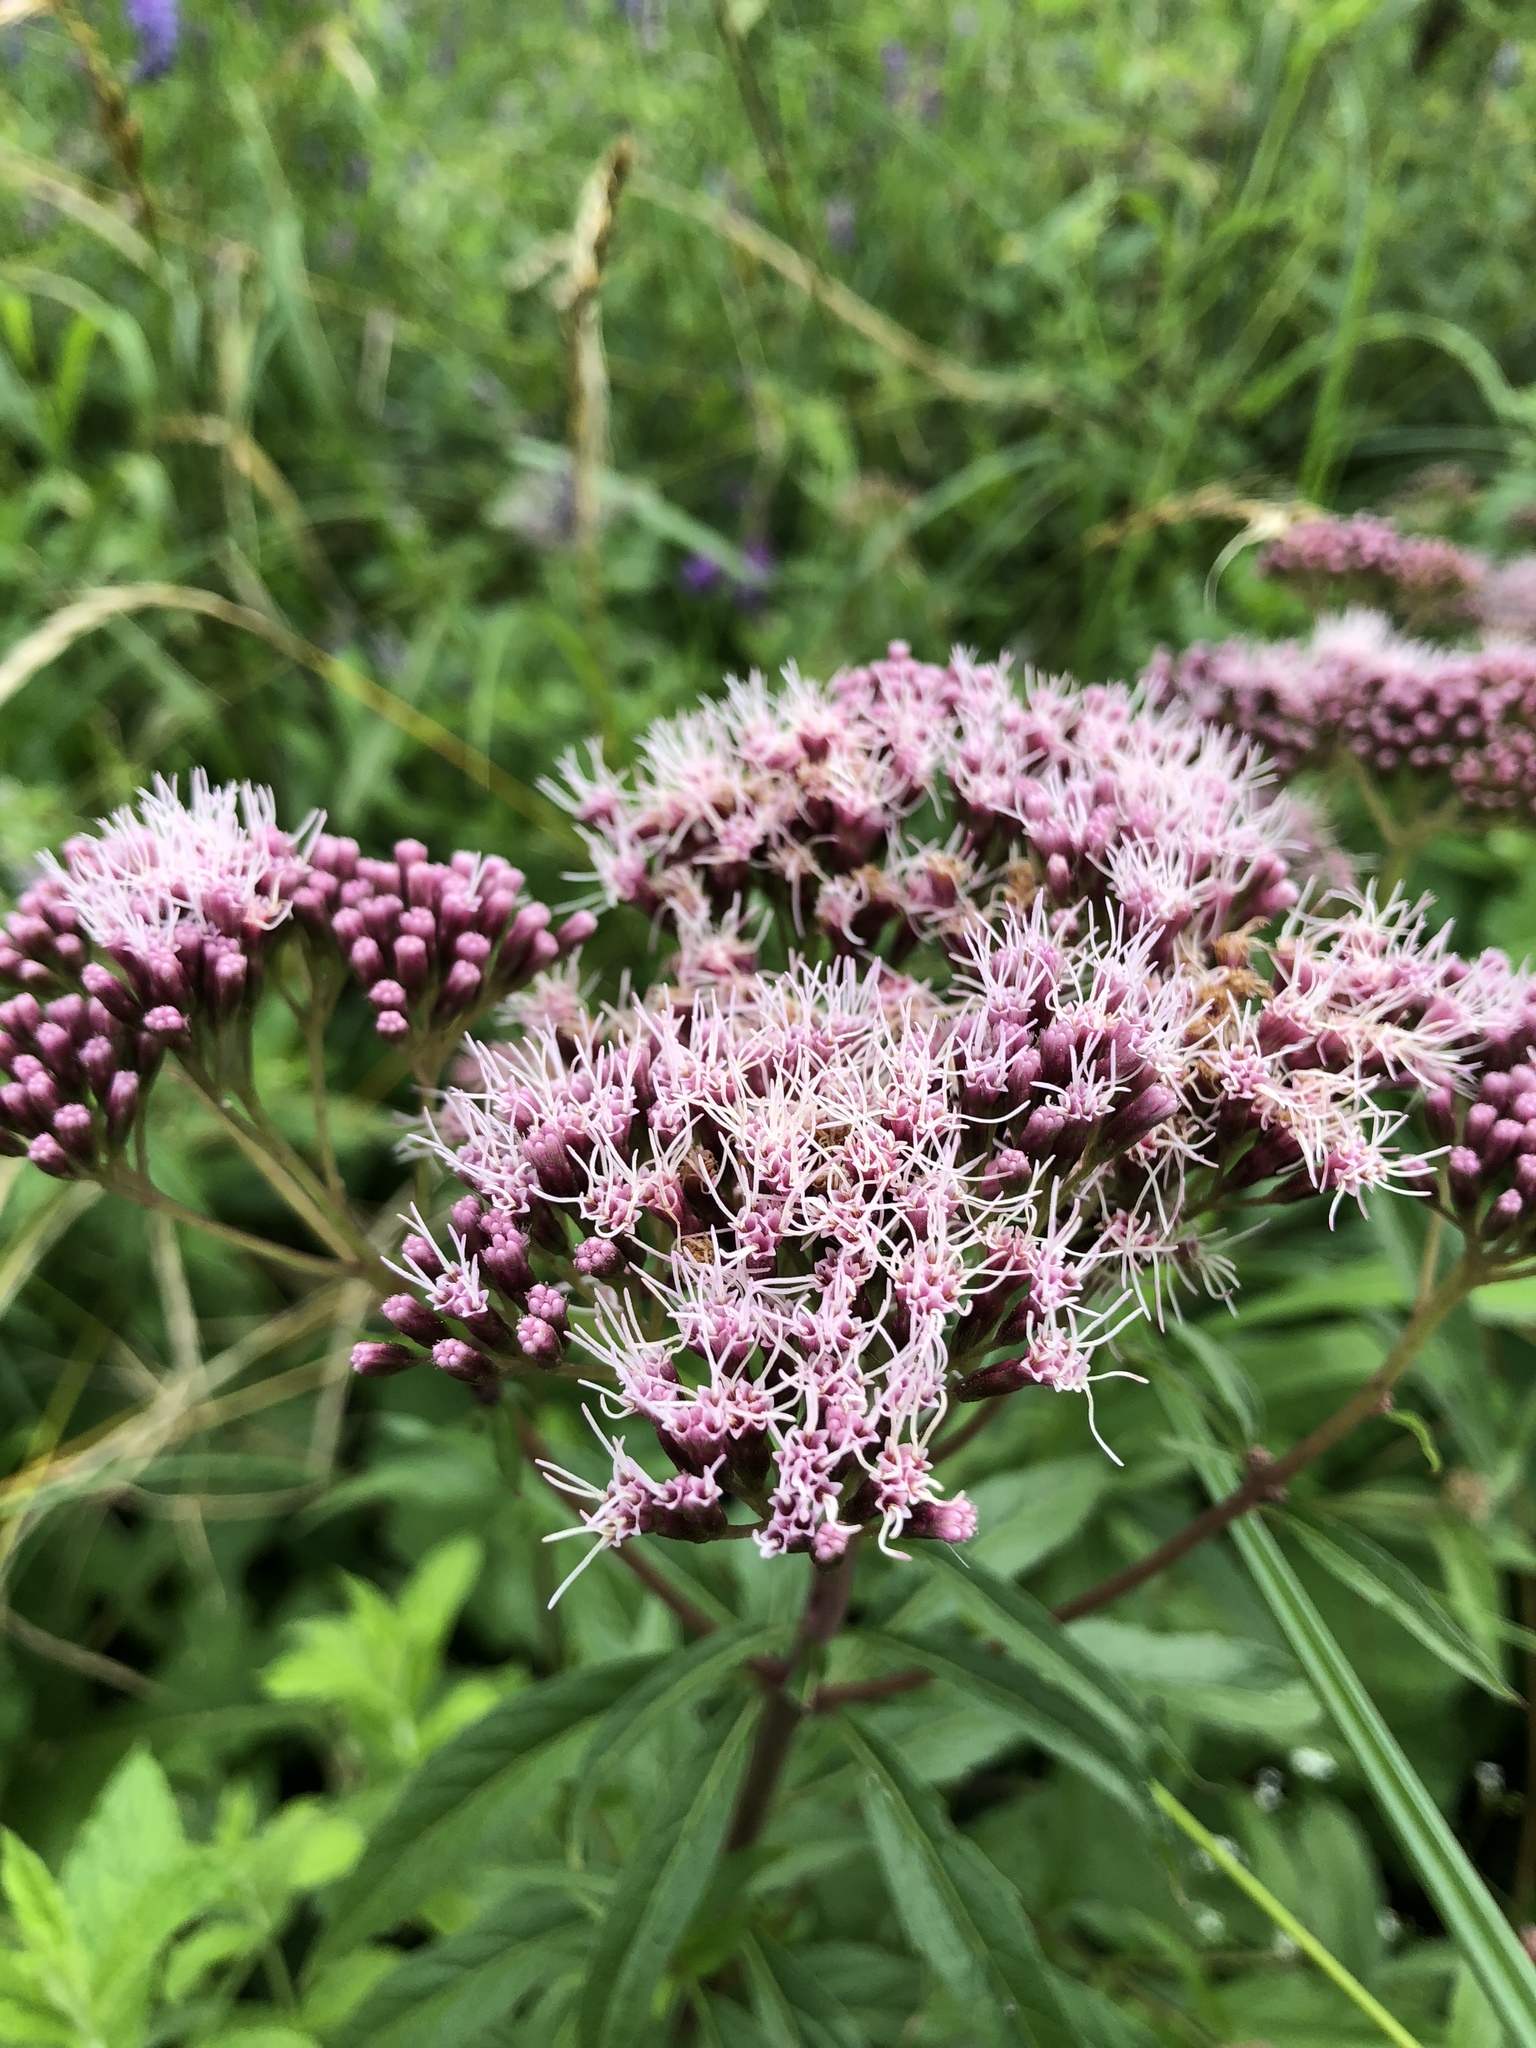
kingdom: Plantae
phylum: Tracheophyta
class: Magnoliopsida
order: Asterales
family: Asteraceae
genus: Eupatorium
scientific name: Eupatorium cannabinum
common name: Hemp-agrimony
